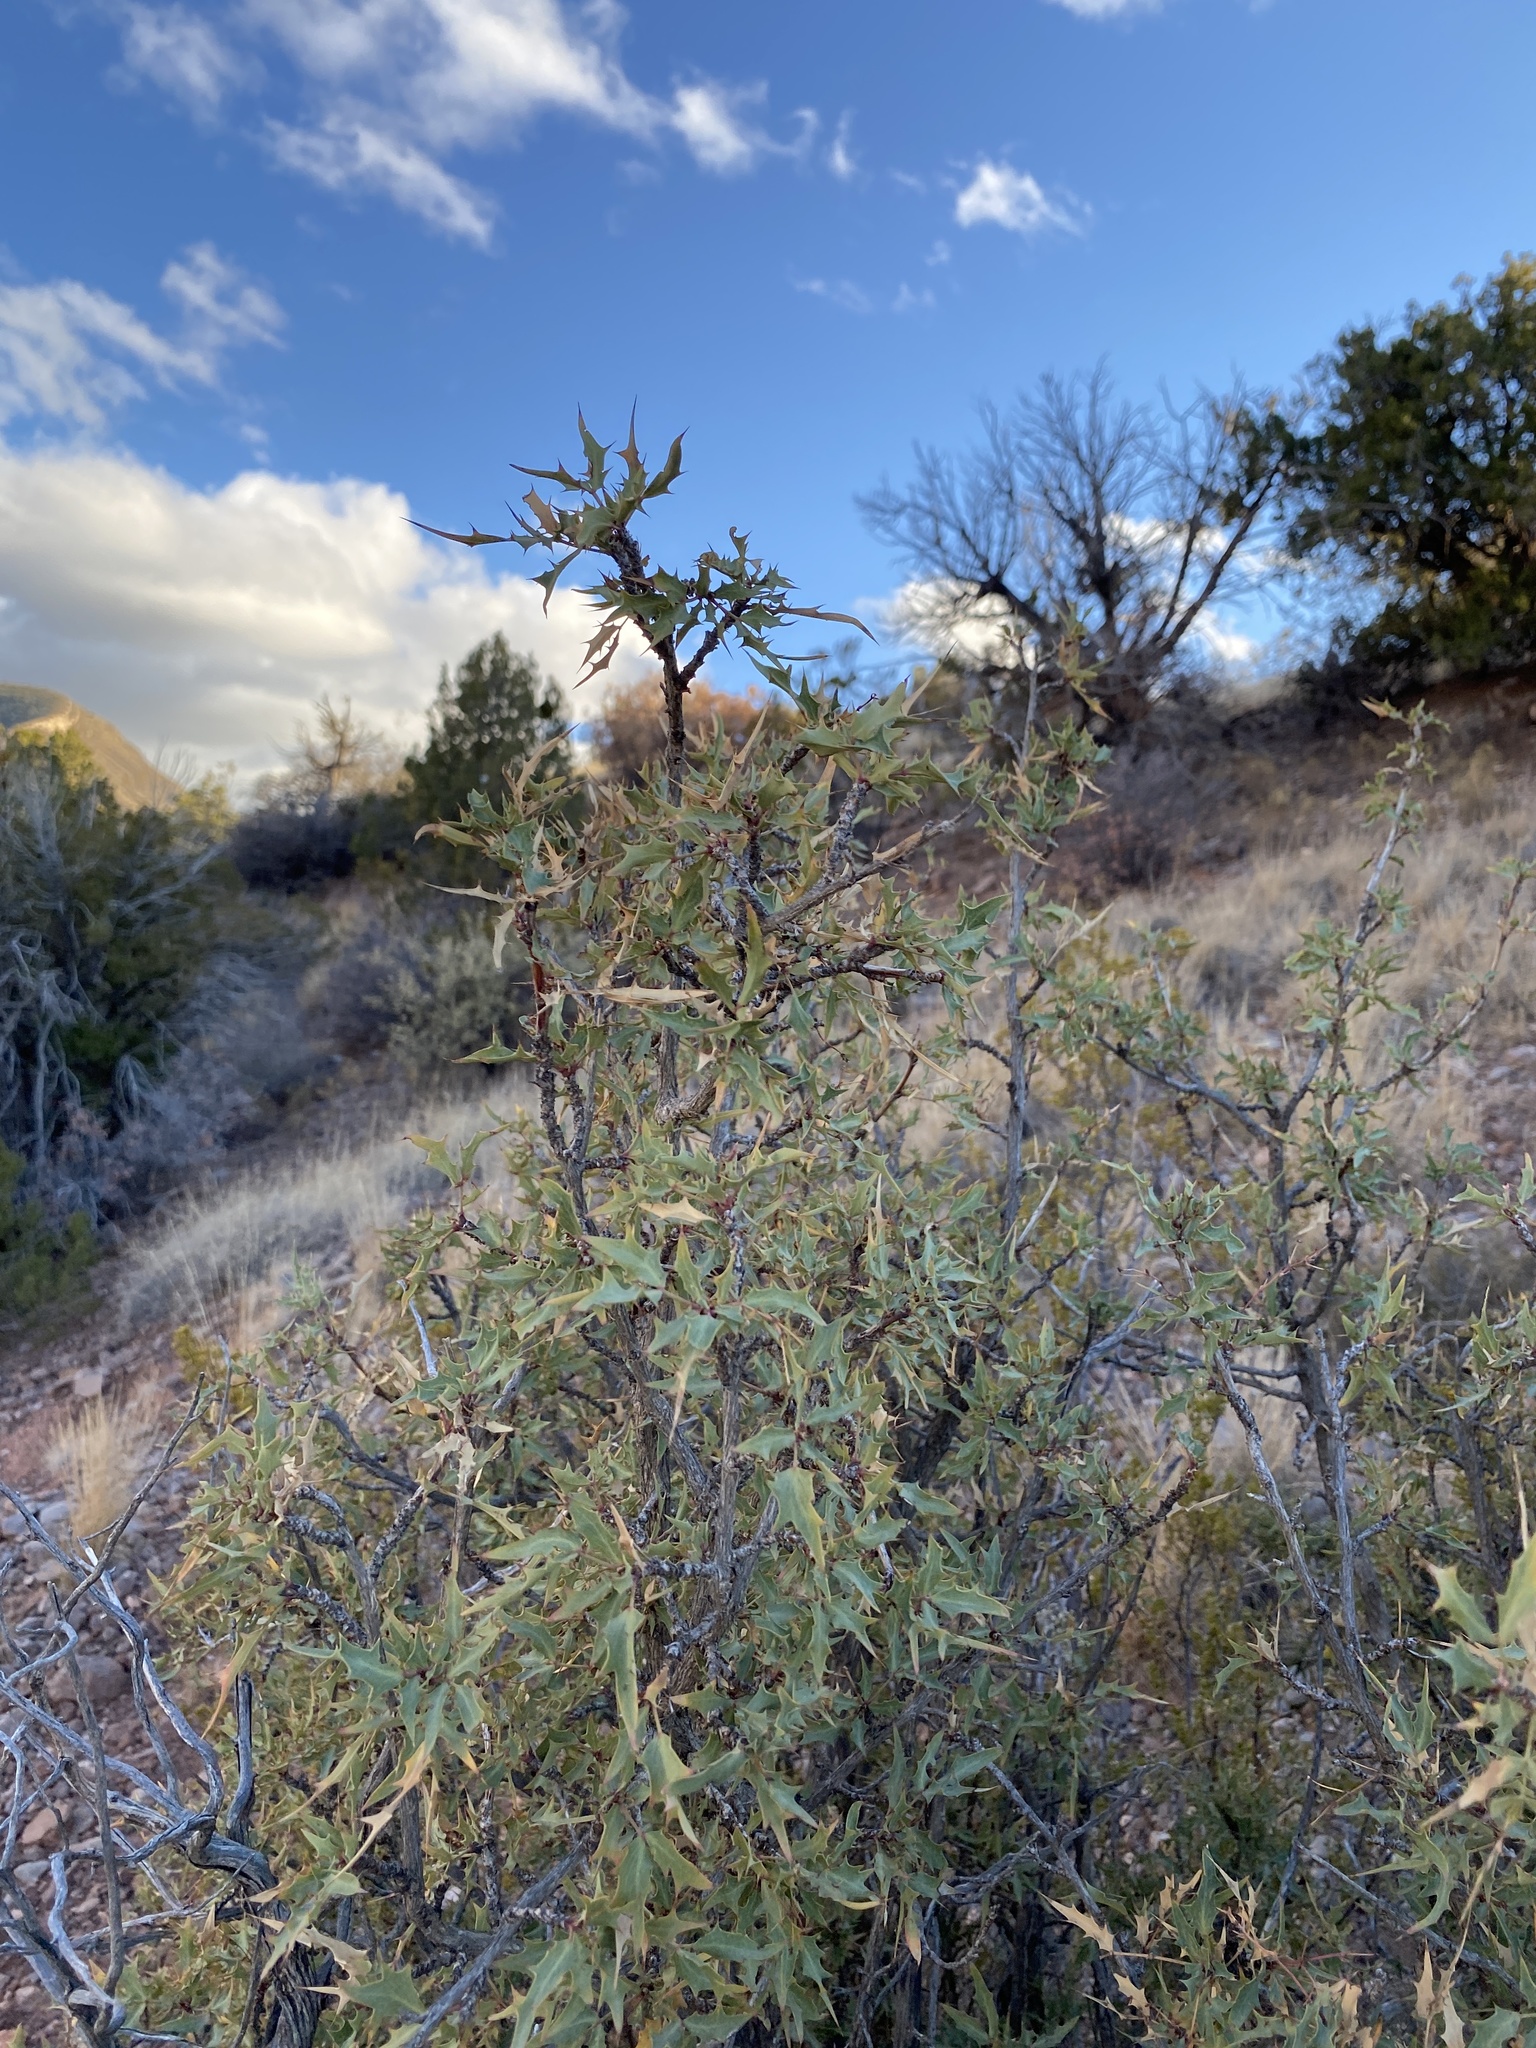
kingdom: Plantae
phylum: Tracheophyta
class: Magnoliopsida
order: Ranunculales
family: Berberidaceae
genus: Alloberberis
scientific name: Alloberberis haematocarpa
